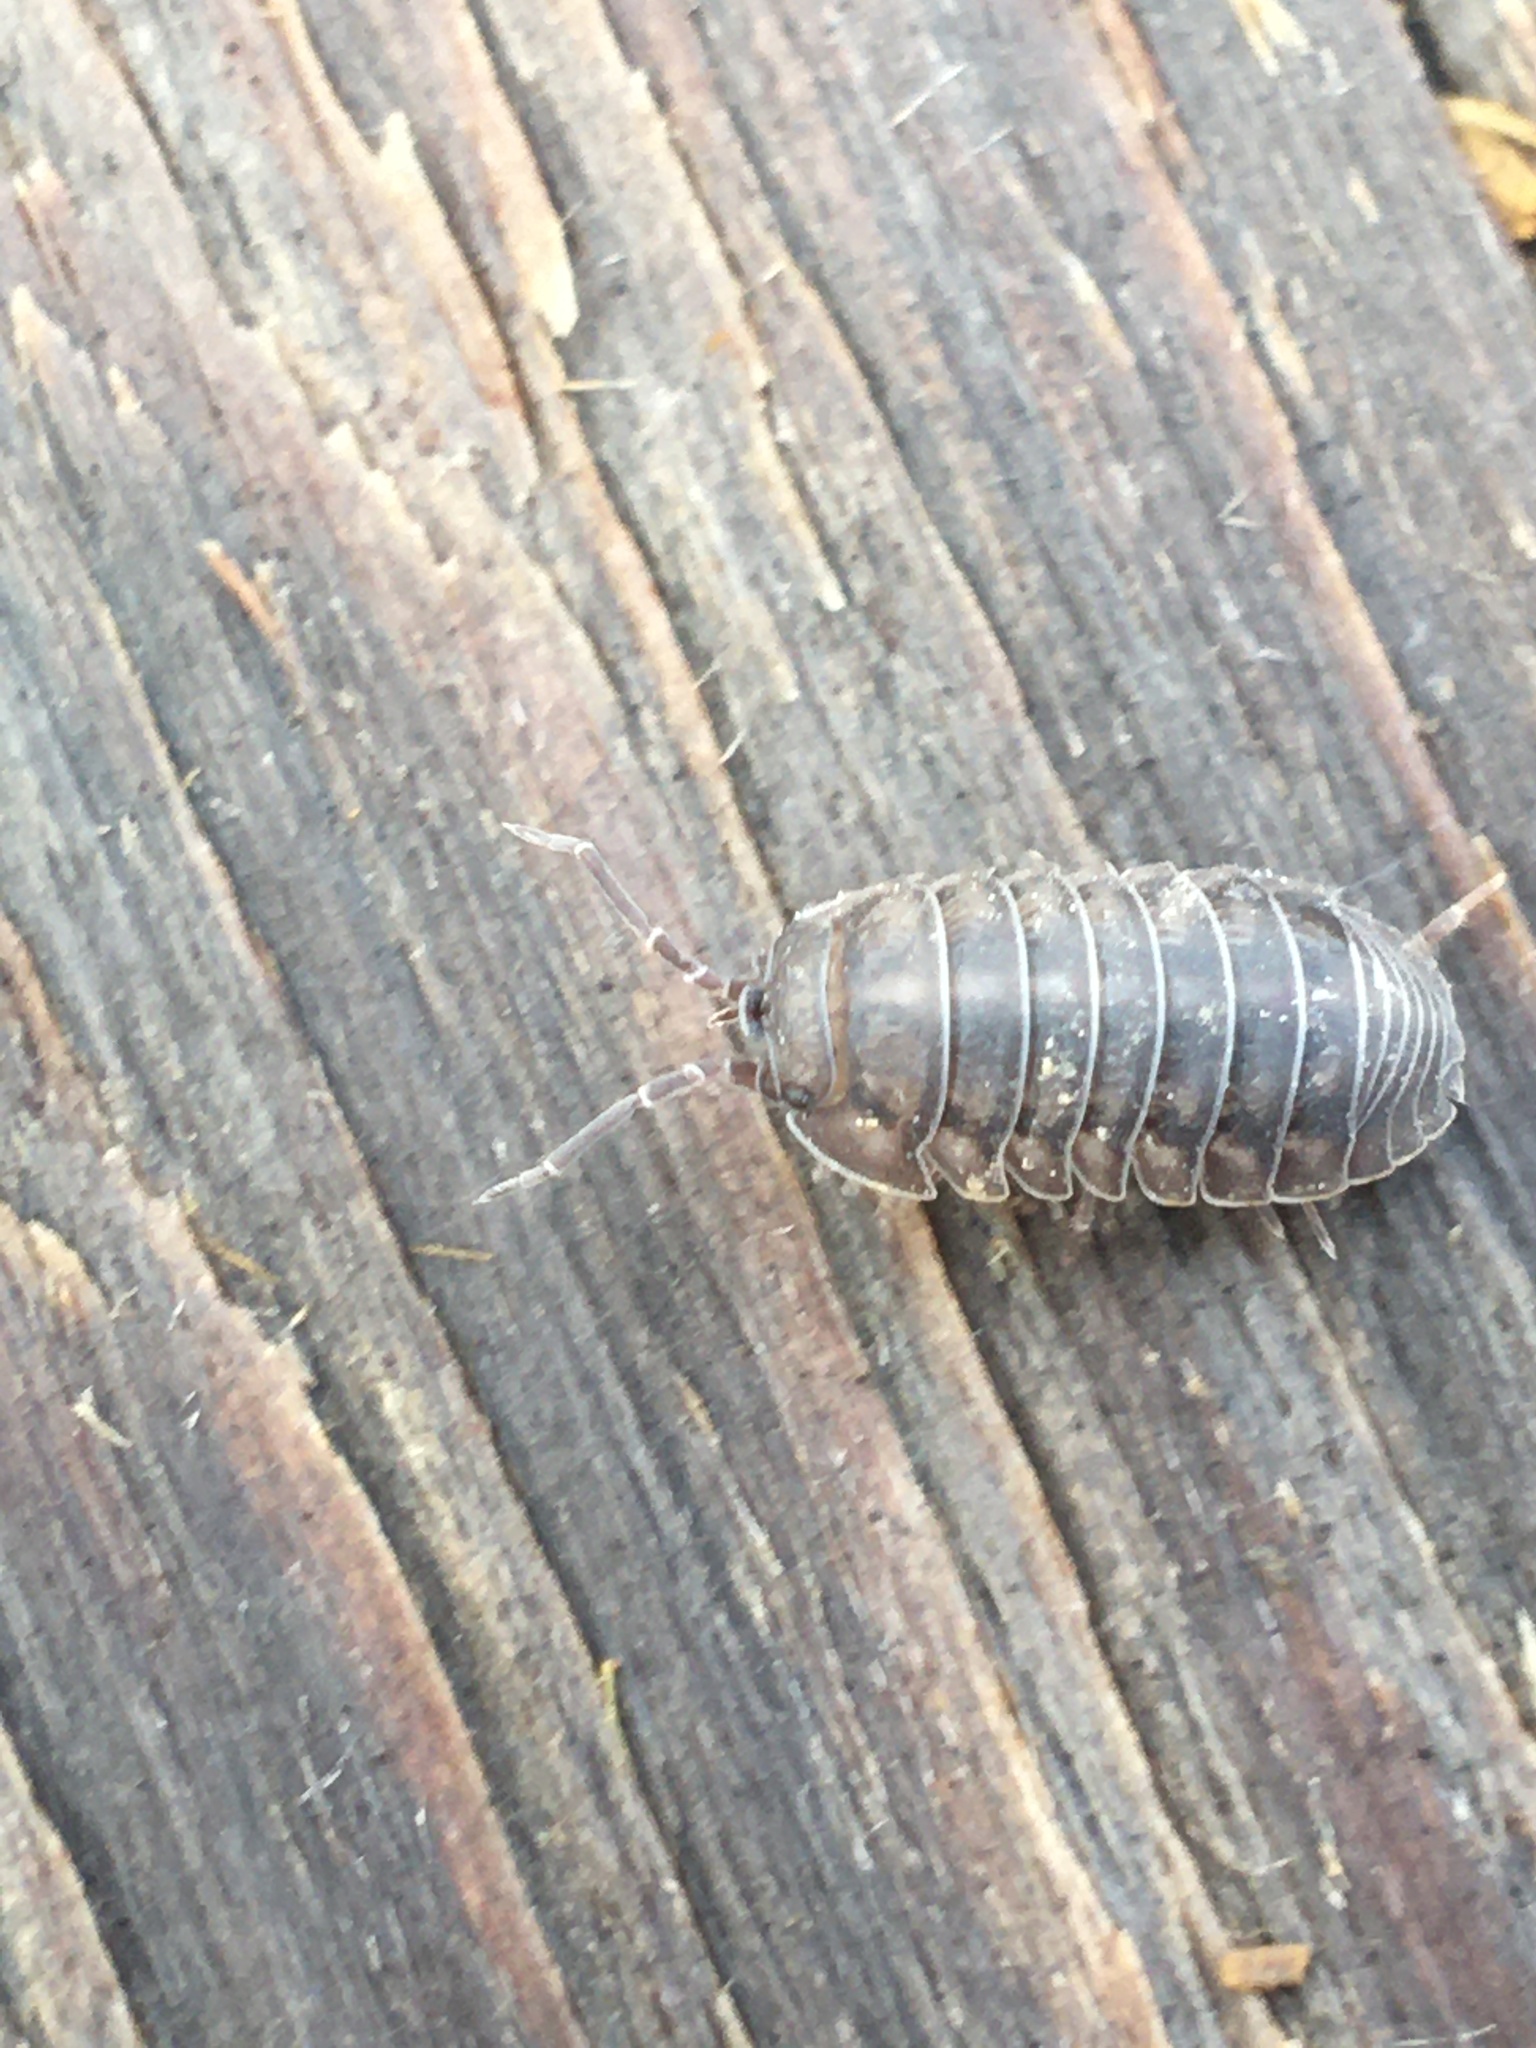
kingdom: Animalia
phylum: Arthropoda
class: Malacostraca
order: Isopoda
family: Armadillidiidae
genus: Armadillidium
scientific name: Armadillidium nasatum
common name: Isopod
